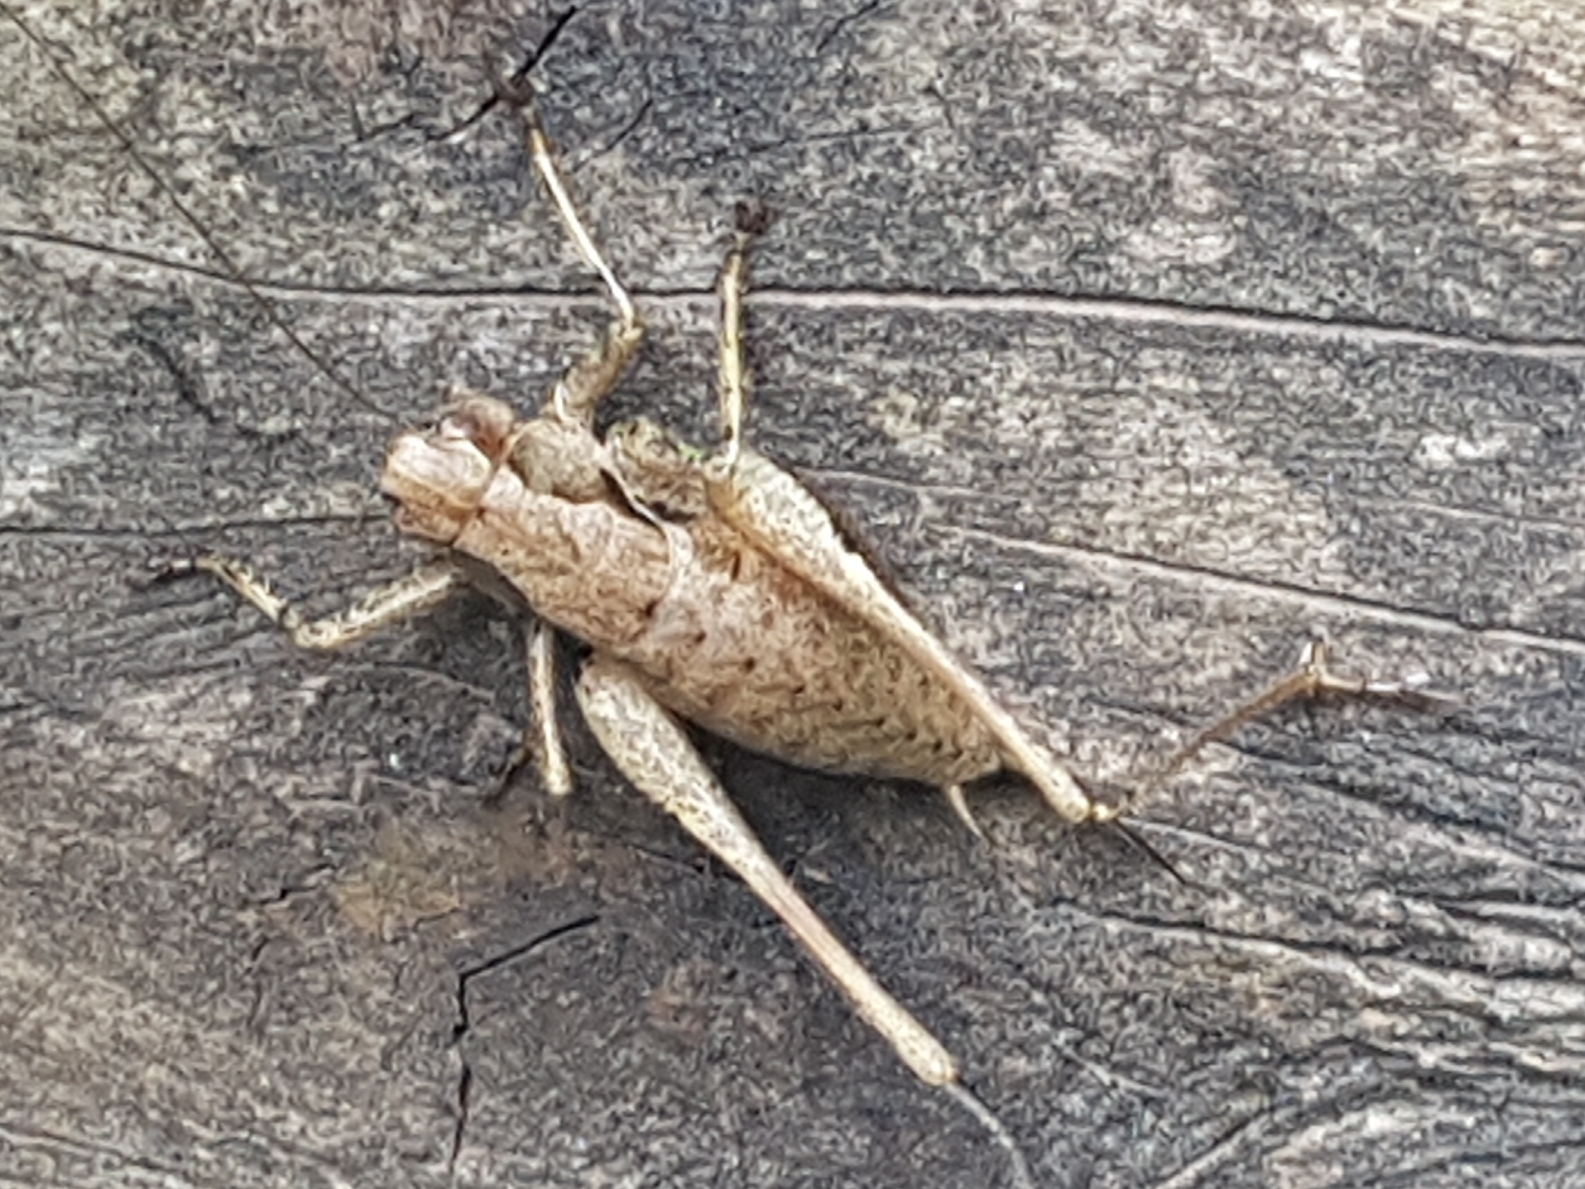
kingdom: Animalia
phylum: Arthropoda
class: Insecta
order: Orthoptera
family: Tettigoniidae
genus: Pholidoptera
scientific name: Pholidoptera griseoaptera
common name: Dark bush-cricket
